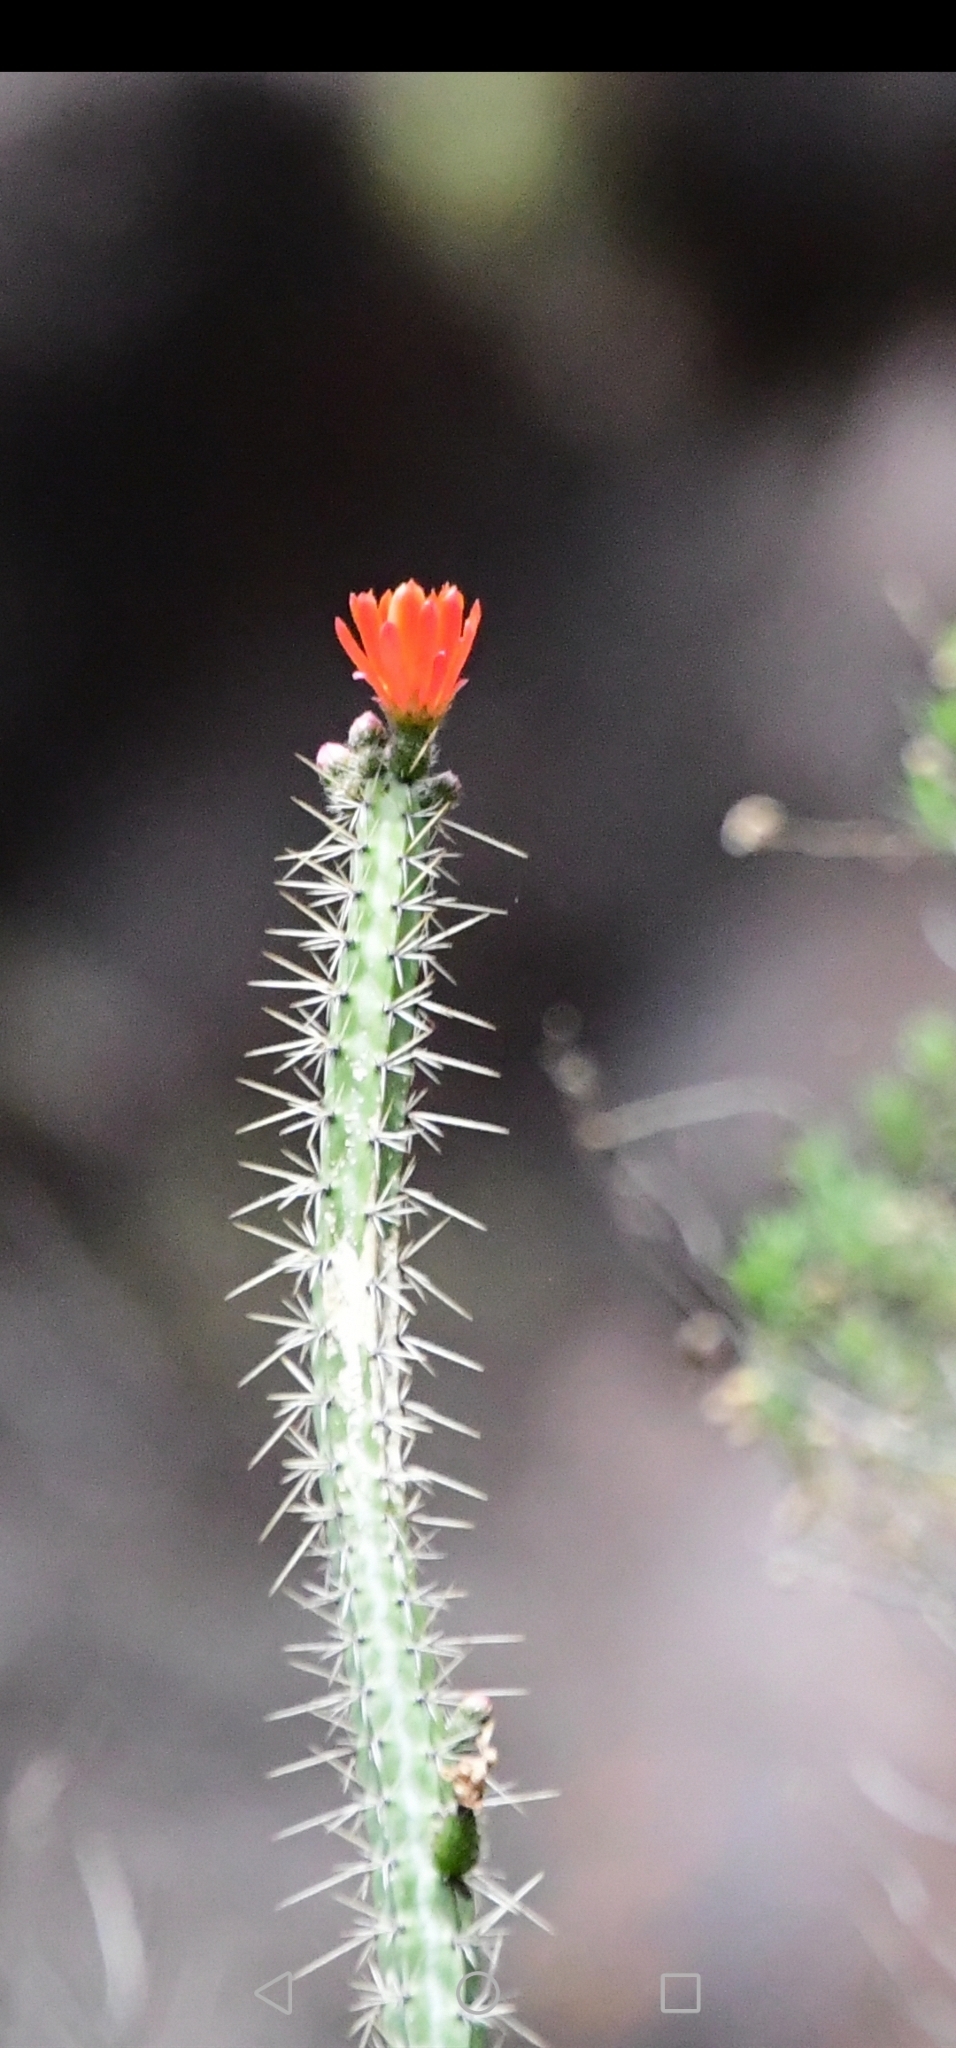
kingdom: Plantae
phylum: Tracheophyta
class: Magnoliopsida
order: Caryophyllales
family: Cactaceae
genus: Corryocactus
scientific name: Corryocactus erectus
